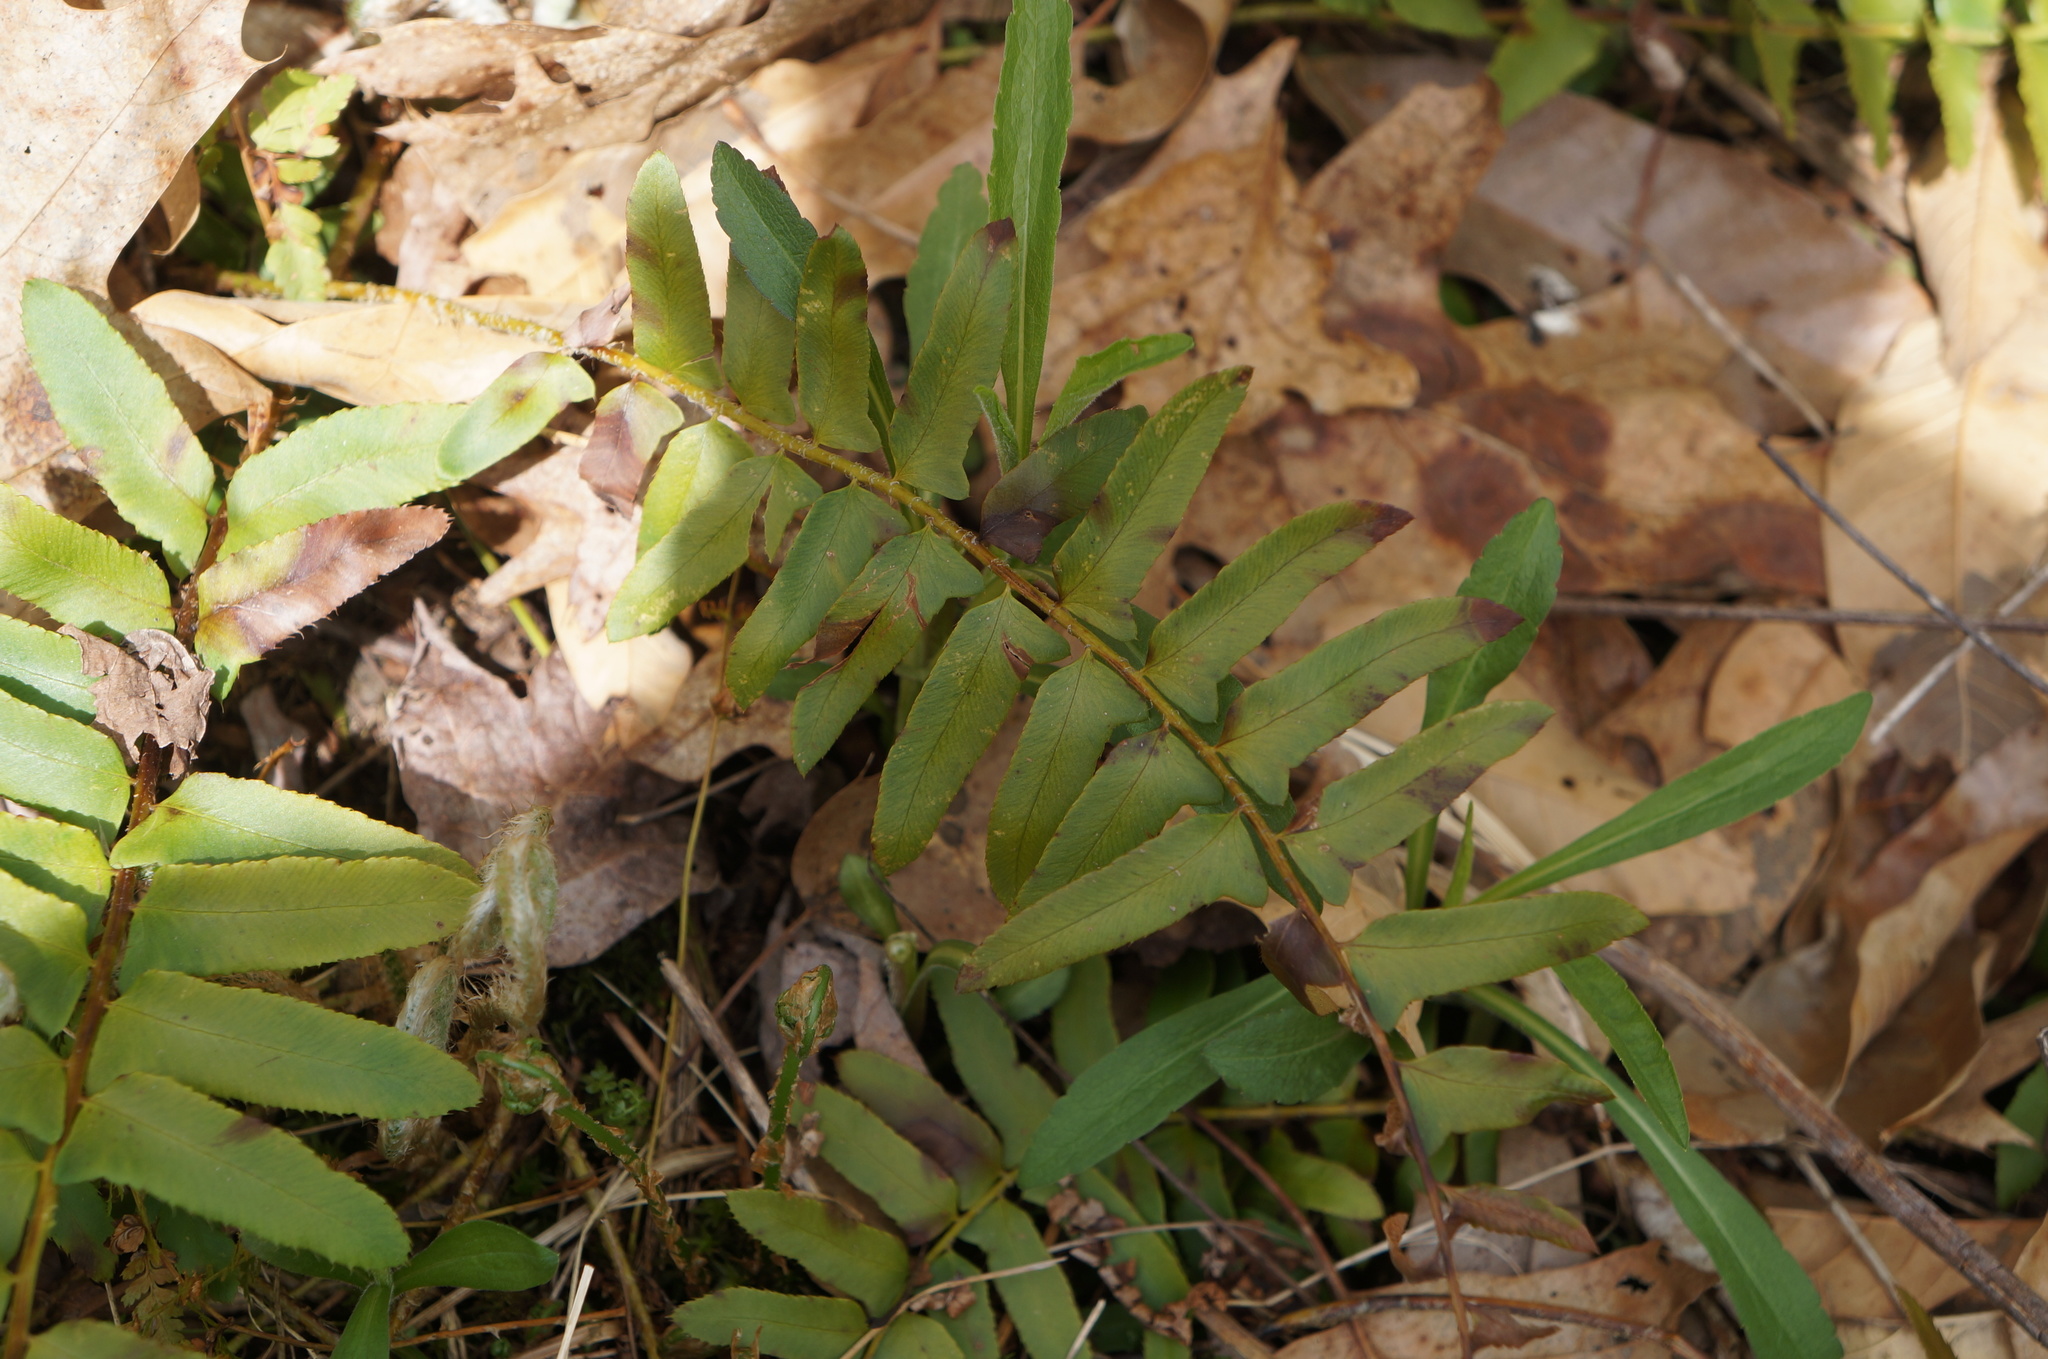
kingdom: Plantae
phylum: Tracheophyta
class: Polypodiopsida
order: Polypodiales
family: Dryopteridaceae
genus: Polystichum
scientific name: Polystichum acrostichoides
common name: Christmas fern
